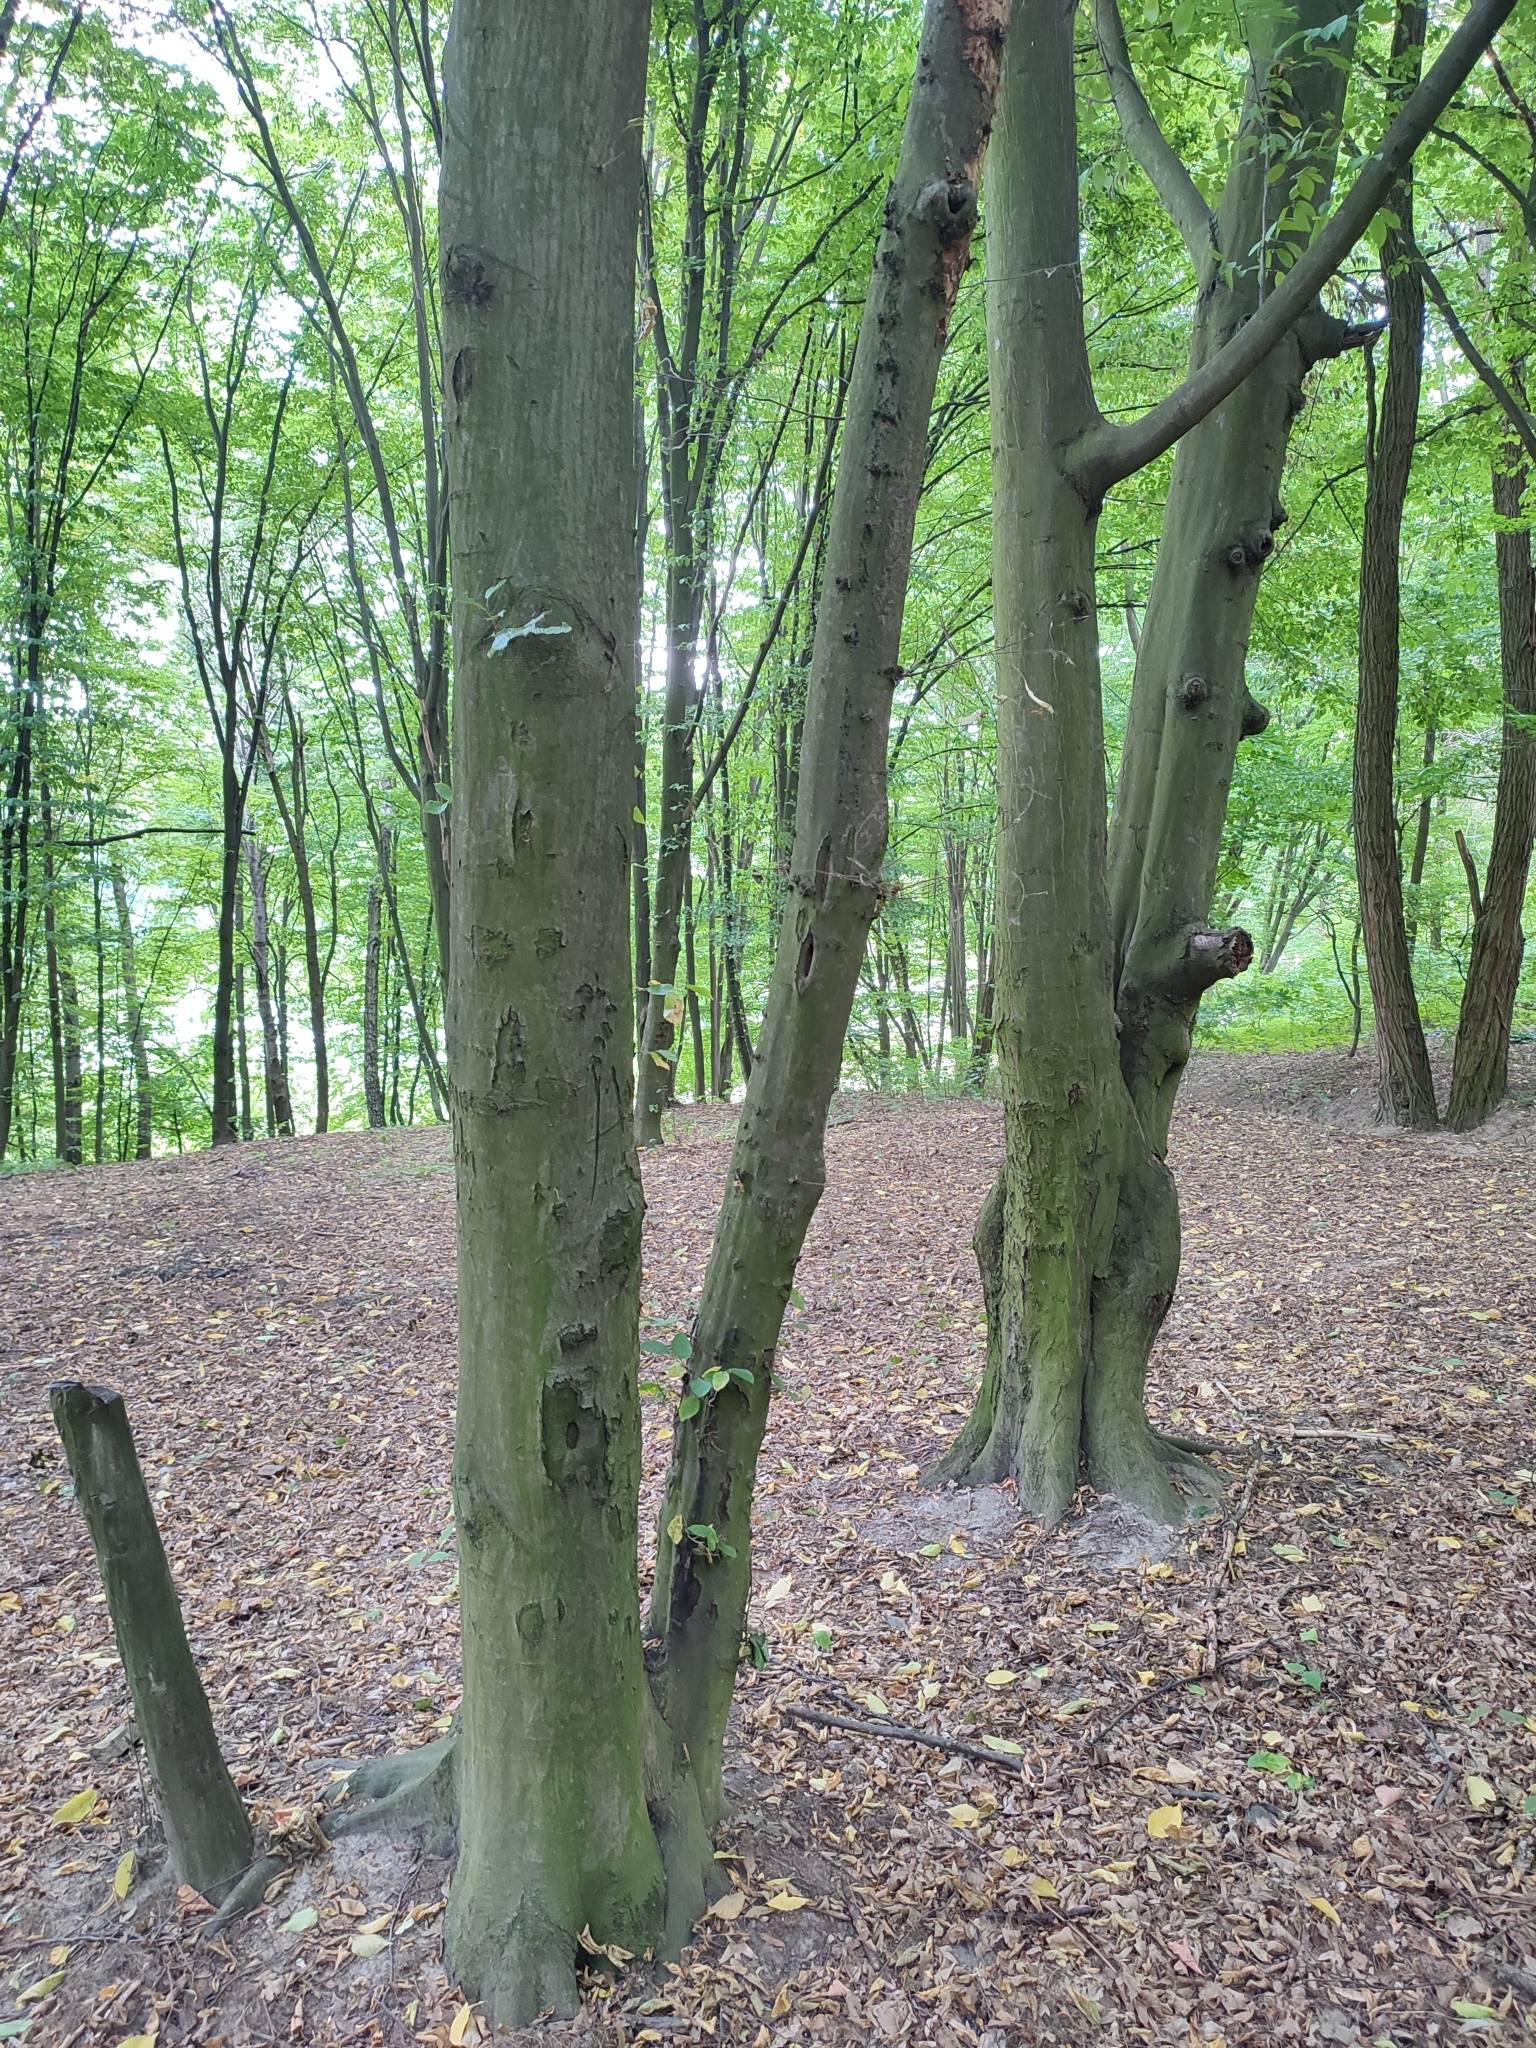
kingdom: Plantae
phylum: Tracheophyta
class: Magnoliopsida
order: Fagales
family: Betulaceae
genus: Carpinus
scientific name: Carpinus betulus
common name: Hornbeam
